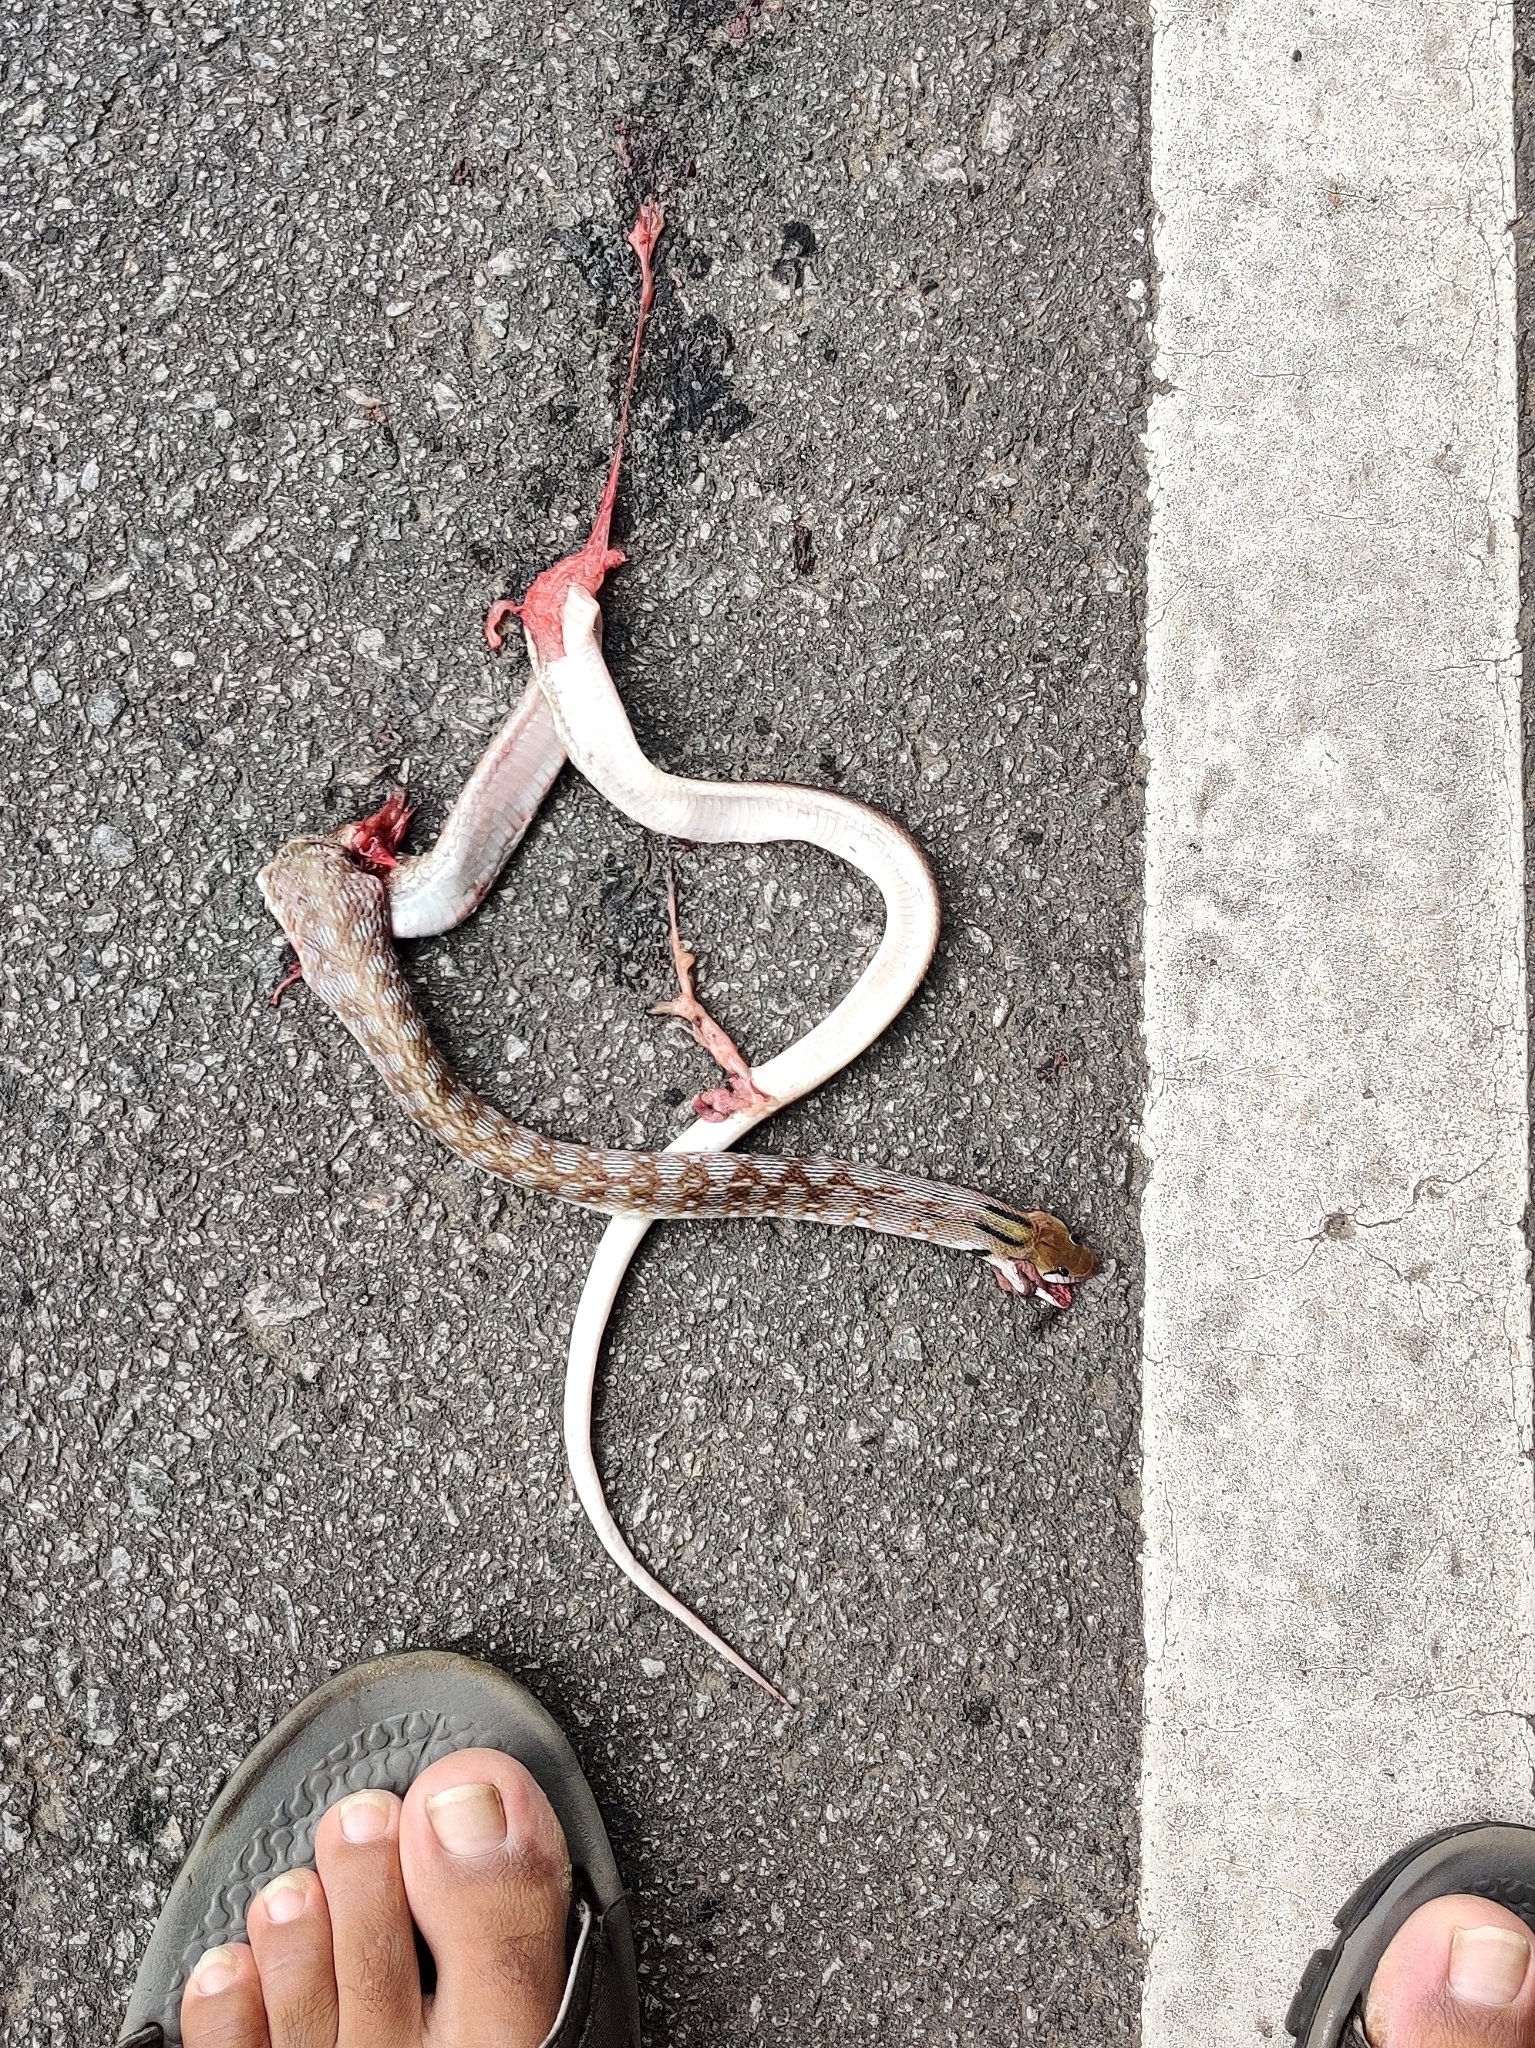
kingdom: Animalia
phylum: Chordata
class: Squamata
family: Colubridae
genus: Coelognathus
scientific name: Coelognathus helena
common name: Trinket snake
